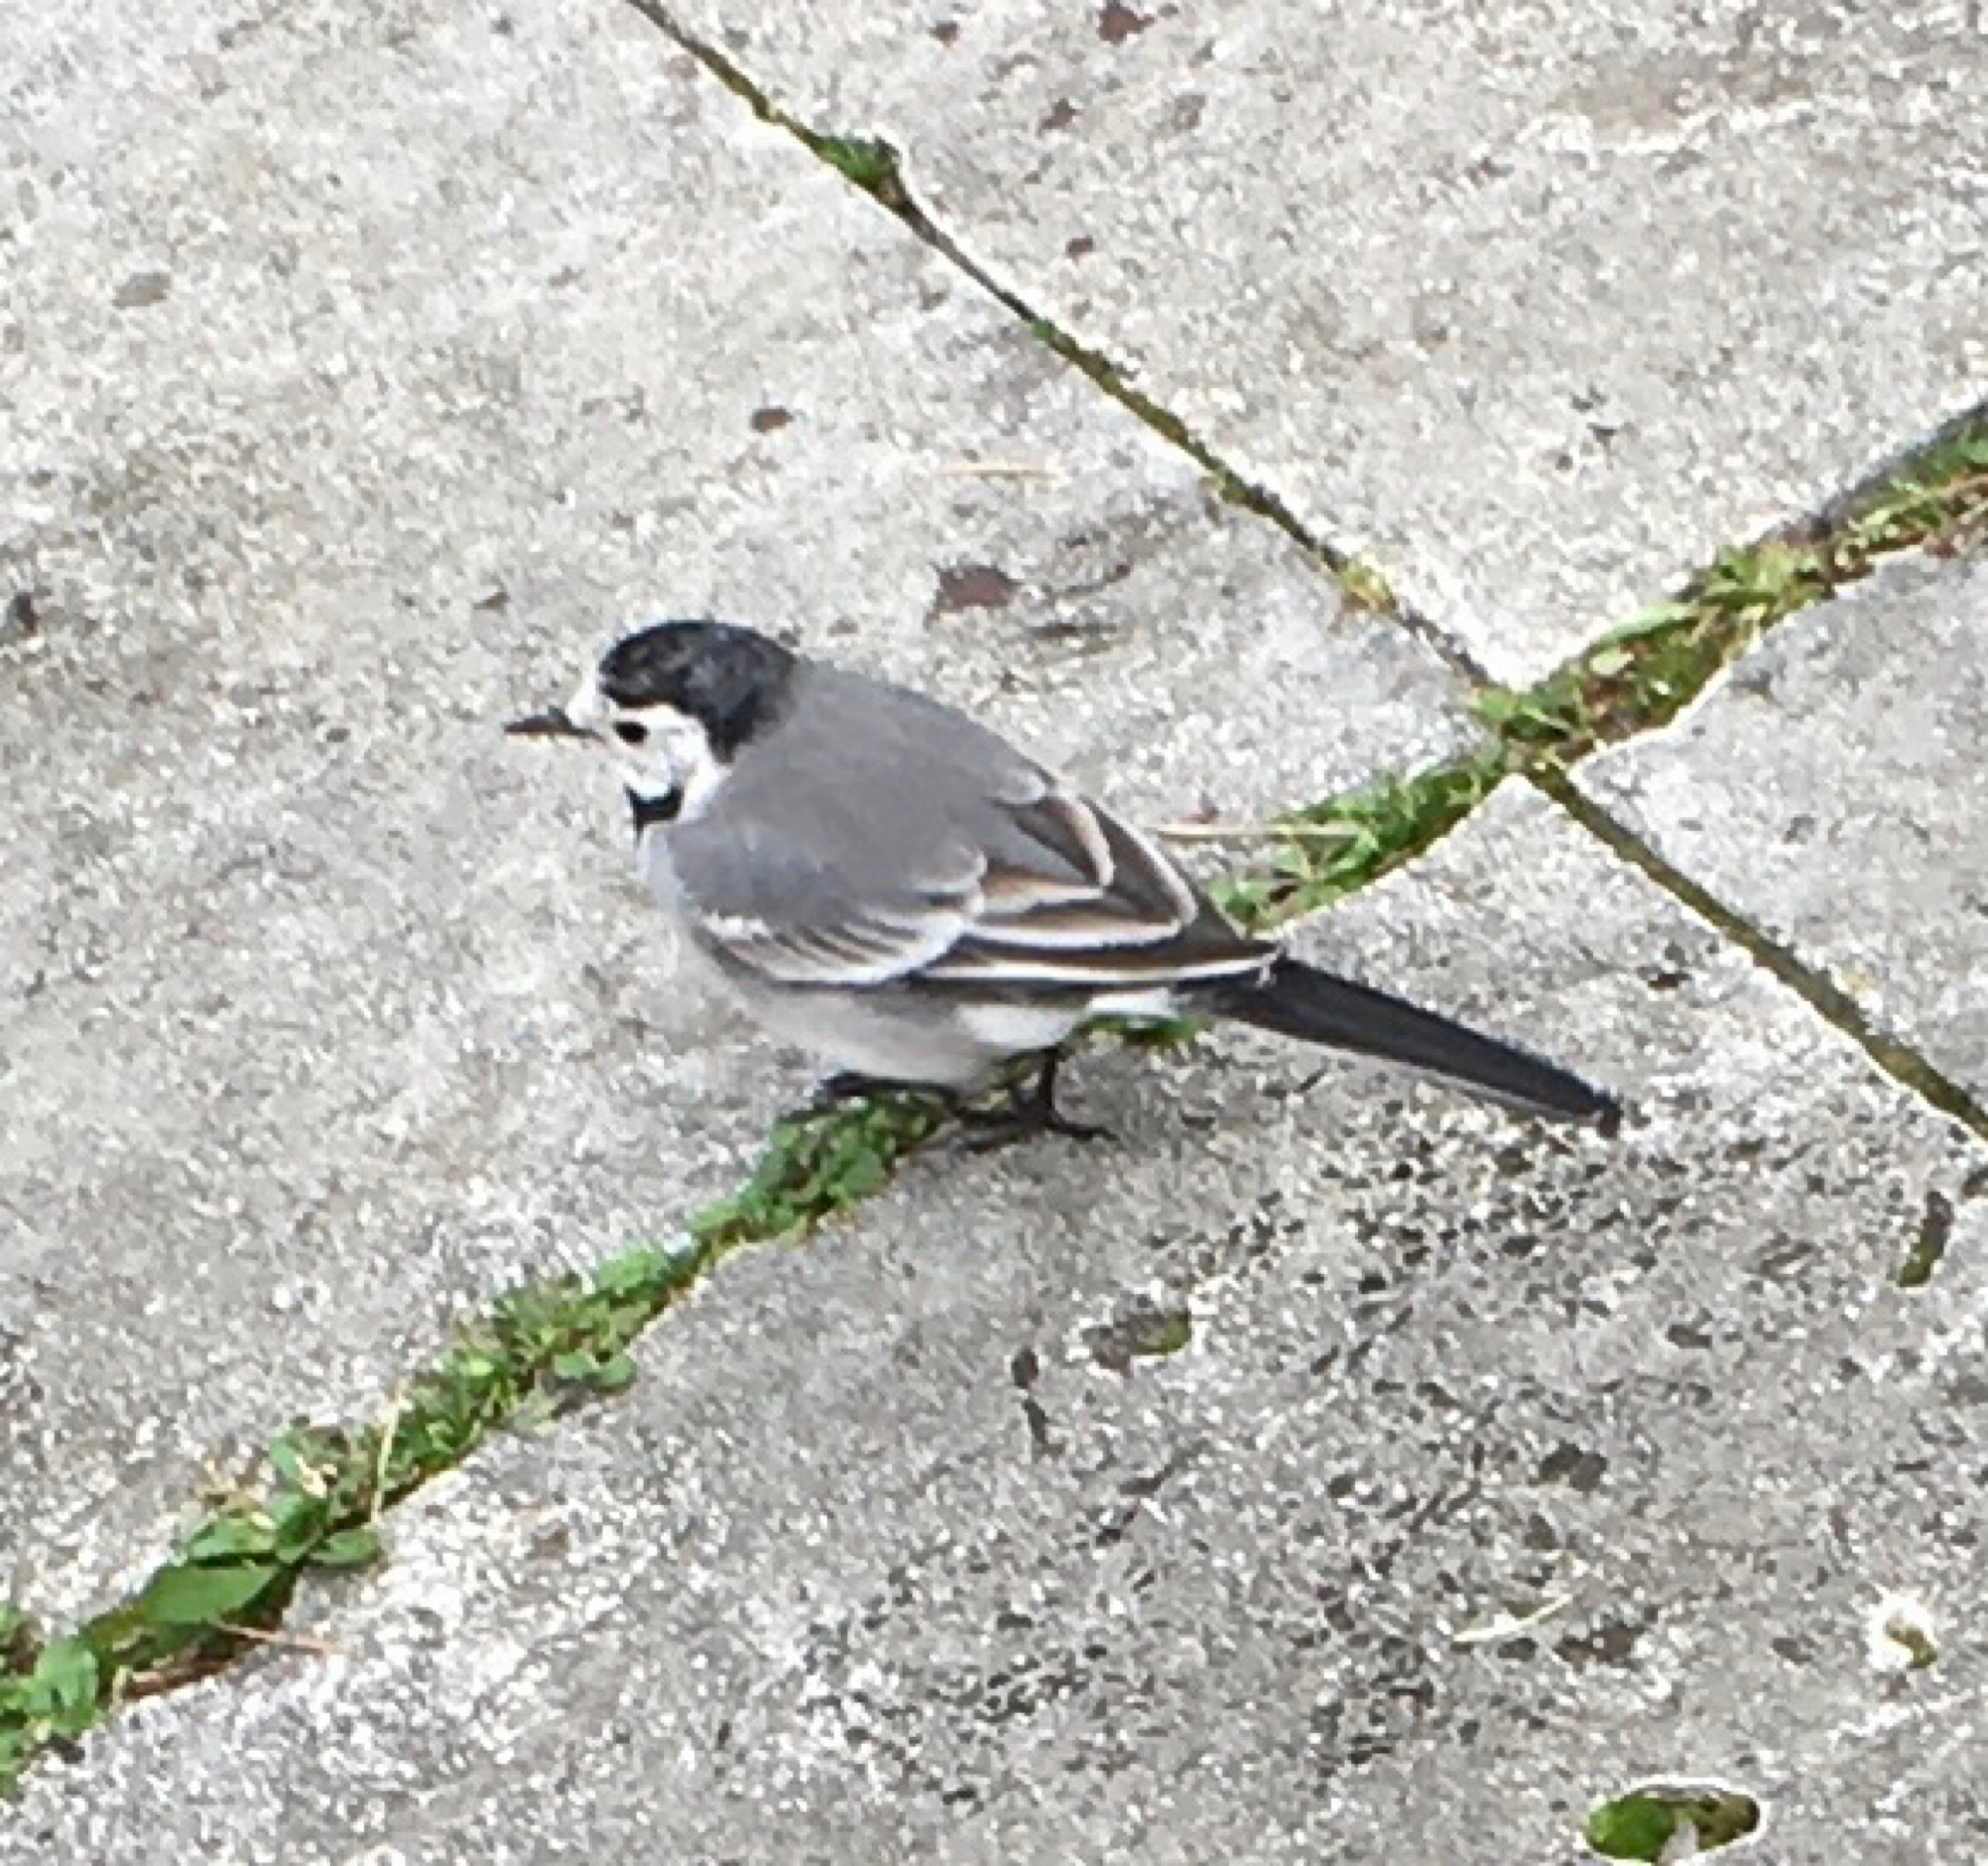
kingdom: Animalia
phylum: Chordata
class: Aves
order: Passeriformes
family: Motacillidae
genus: Motacilla
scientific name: Motacilla alba
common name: White wagtail
